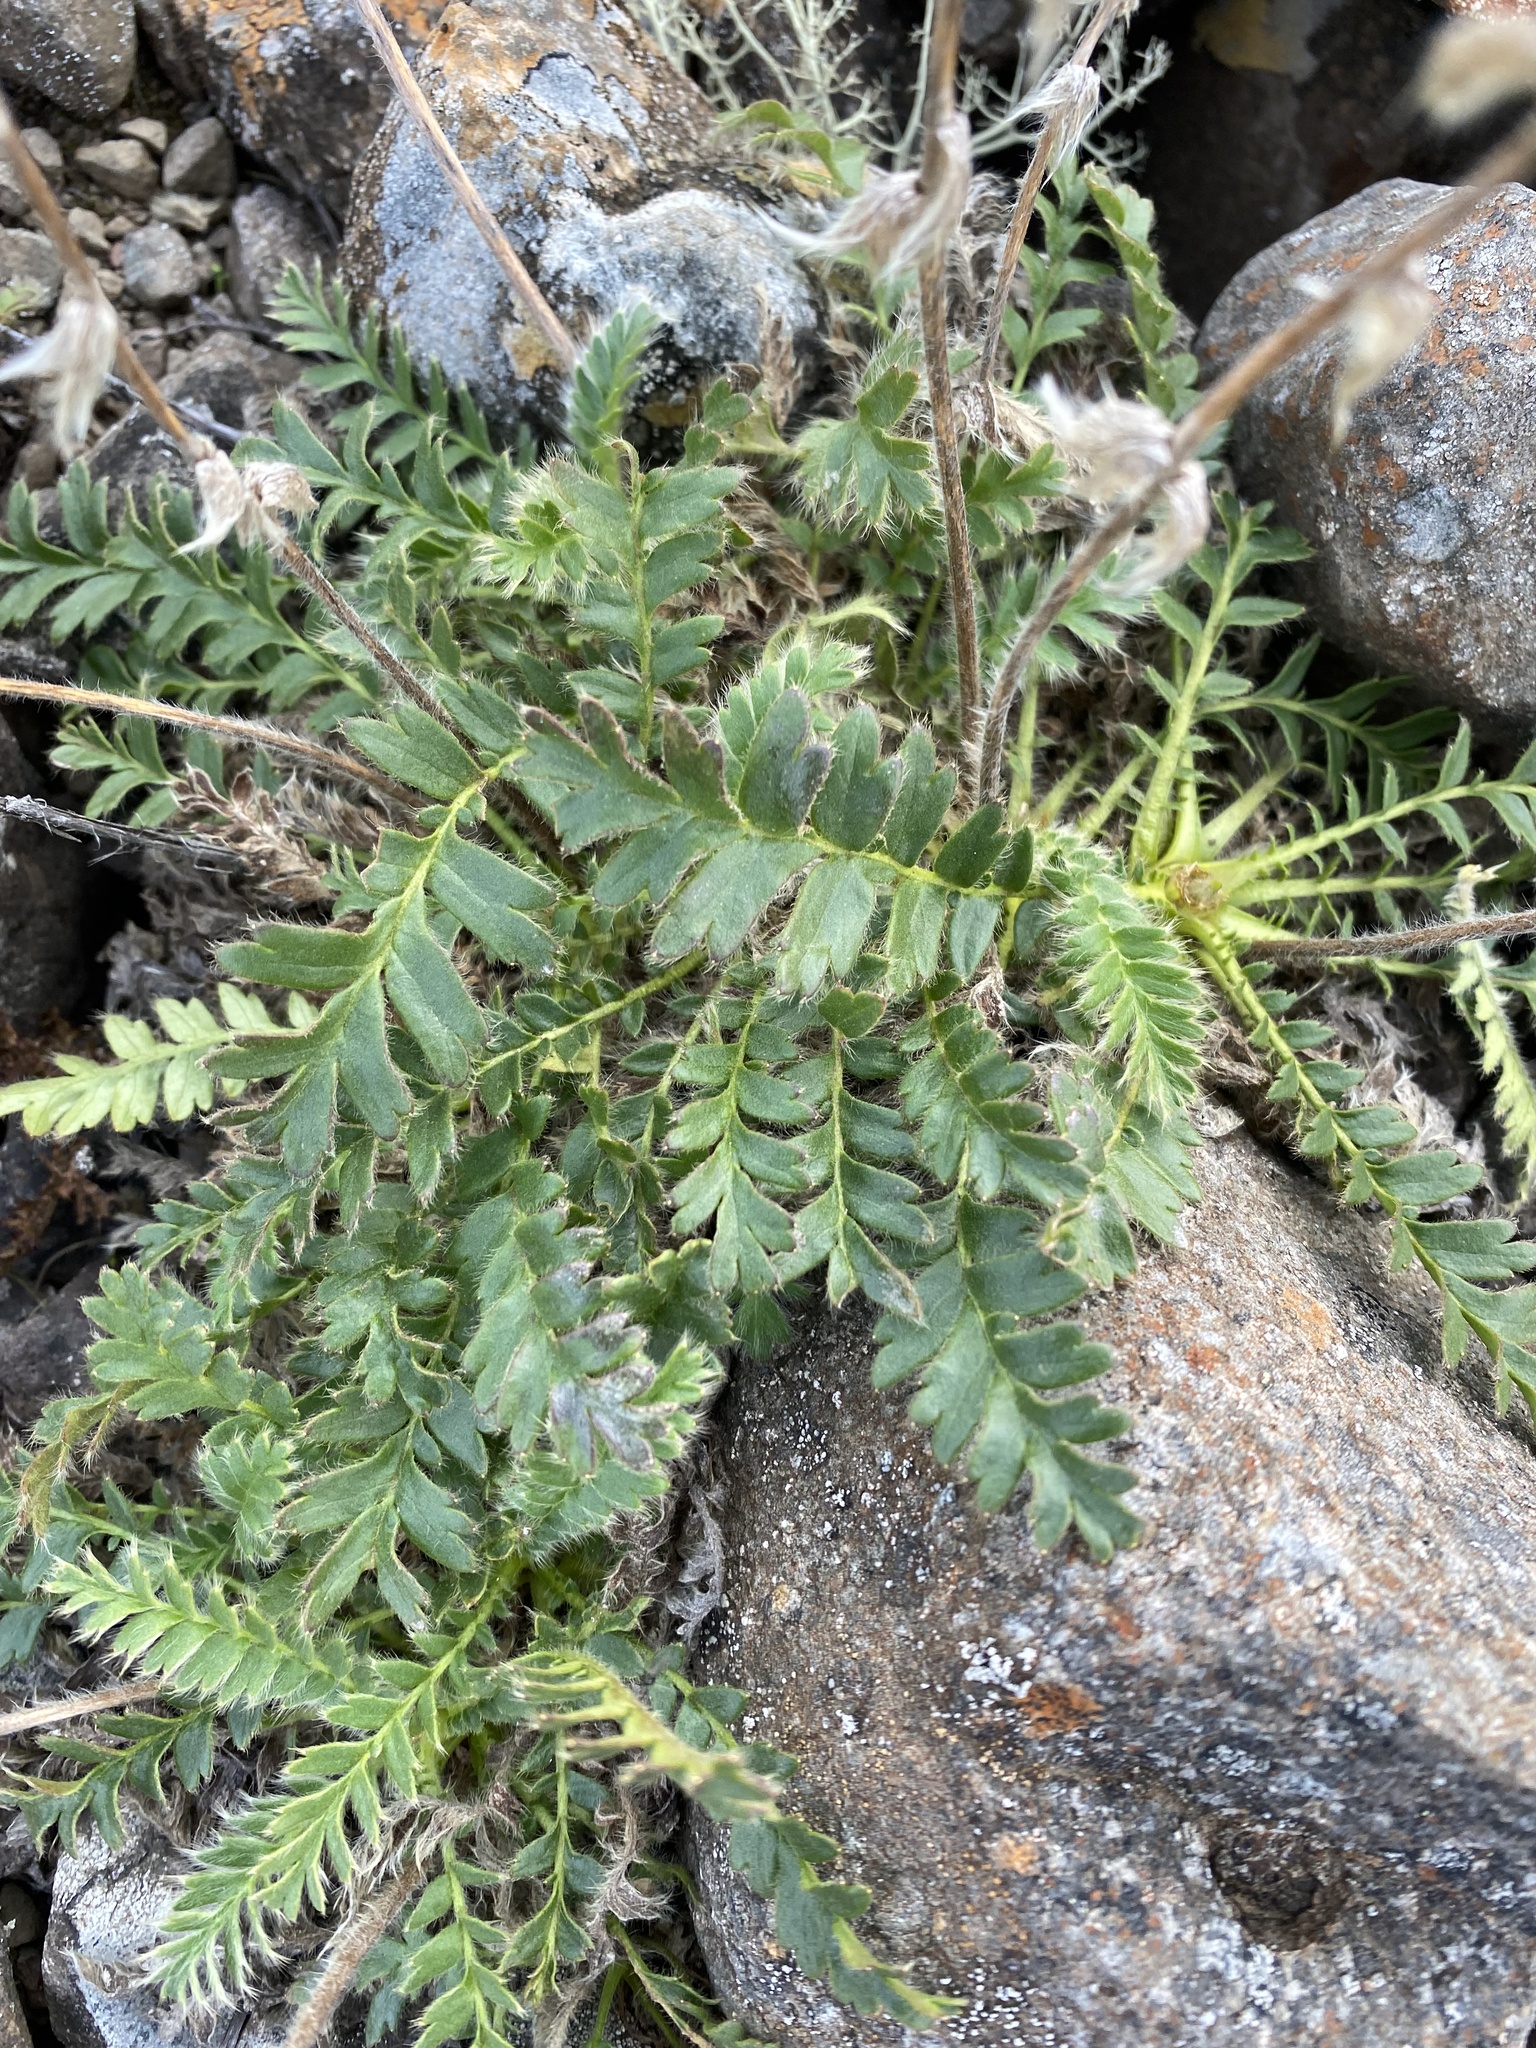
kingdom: Plantae
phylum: Tracheophyta
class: Magnoliopsida
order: Rosales
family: Rosaceae
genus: Geum
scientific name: Geum glaciale
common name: Glacier avens
